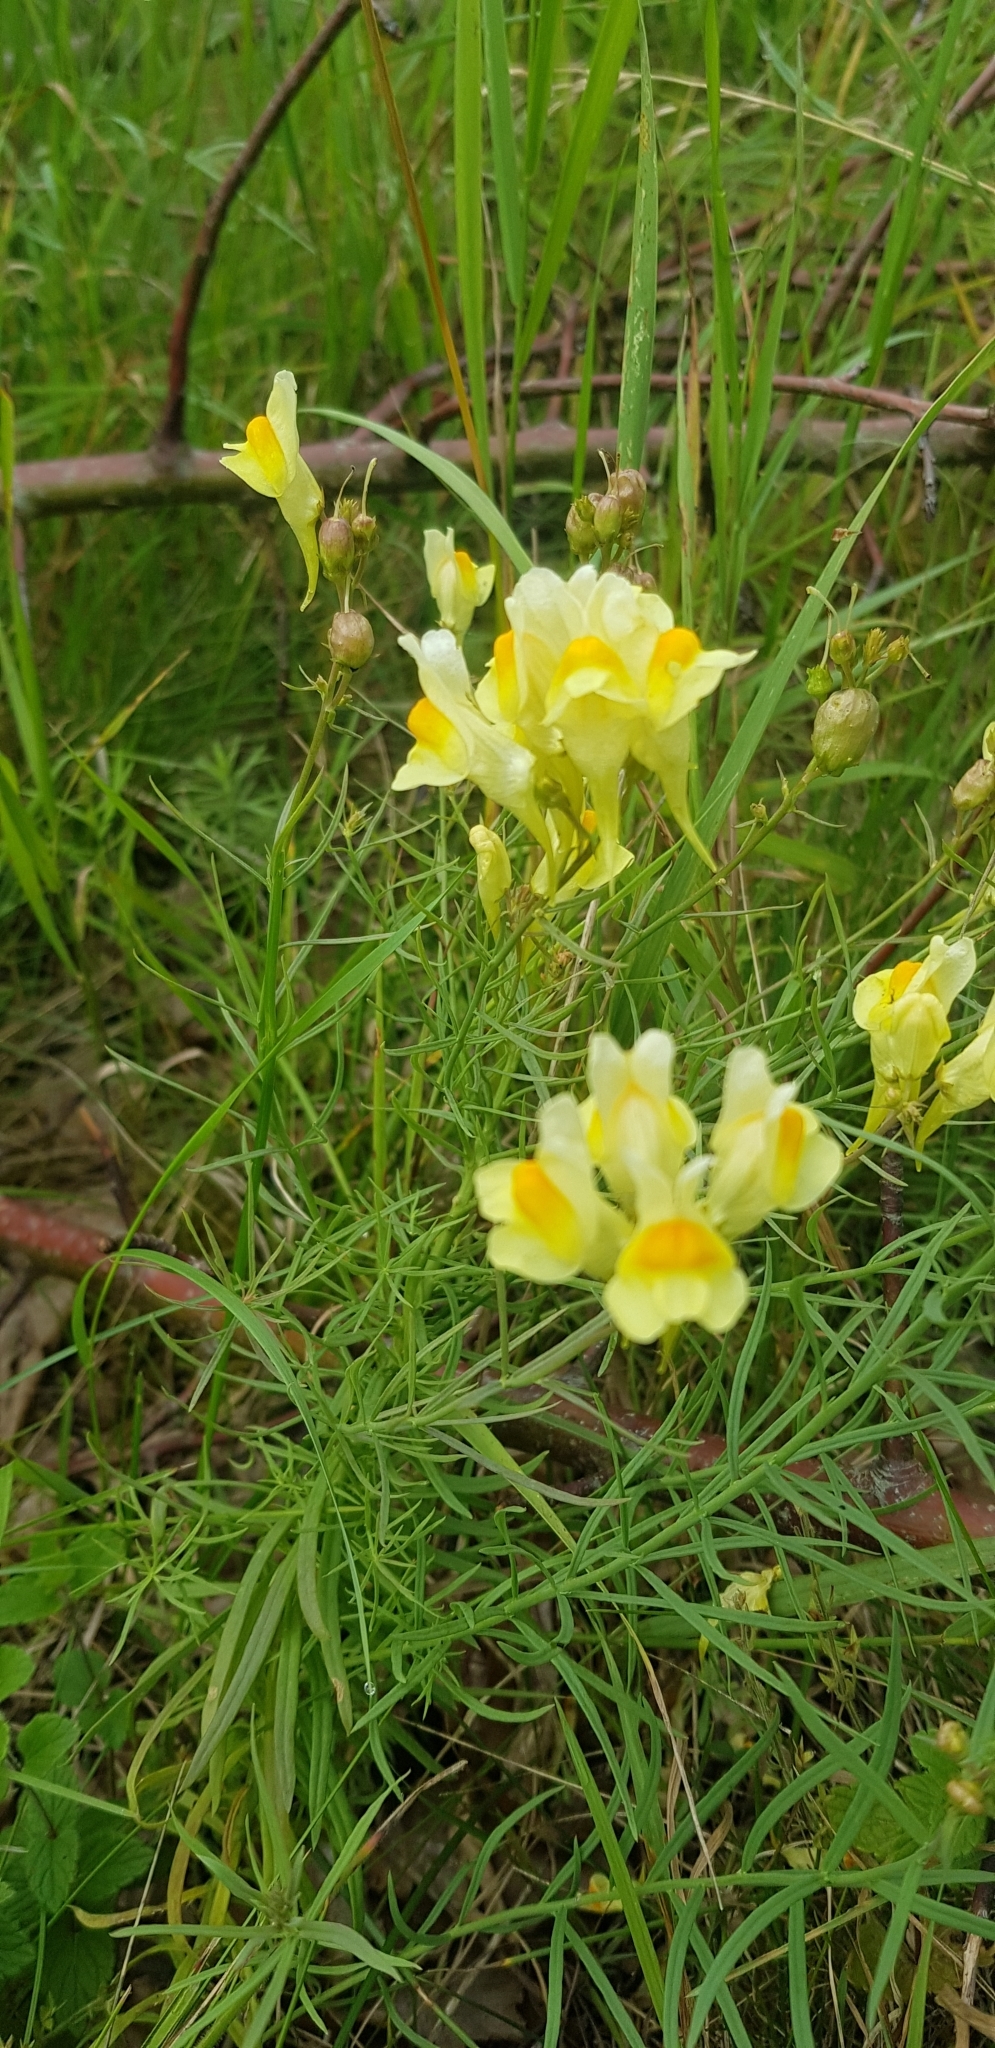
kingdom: Plantae
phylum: Tracheophyta
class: Magnoliopsida
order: Lamiales
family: Plantaginaceae
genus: Linaria
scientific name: Linaria vulgaris
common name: Butter and eggs
